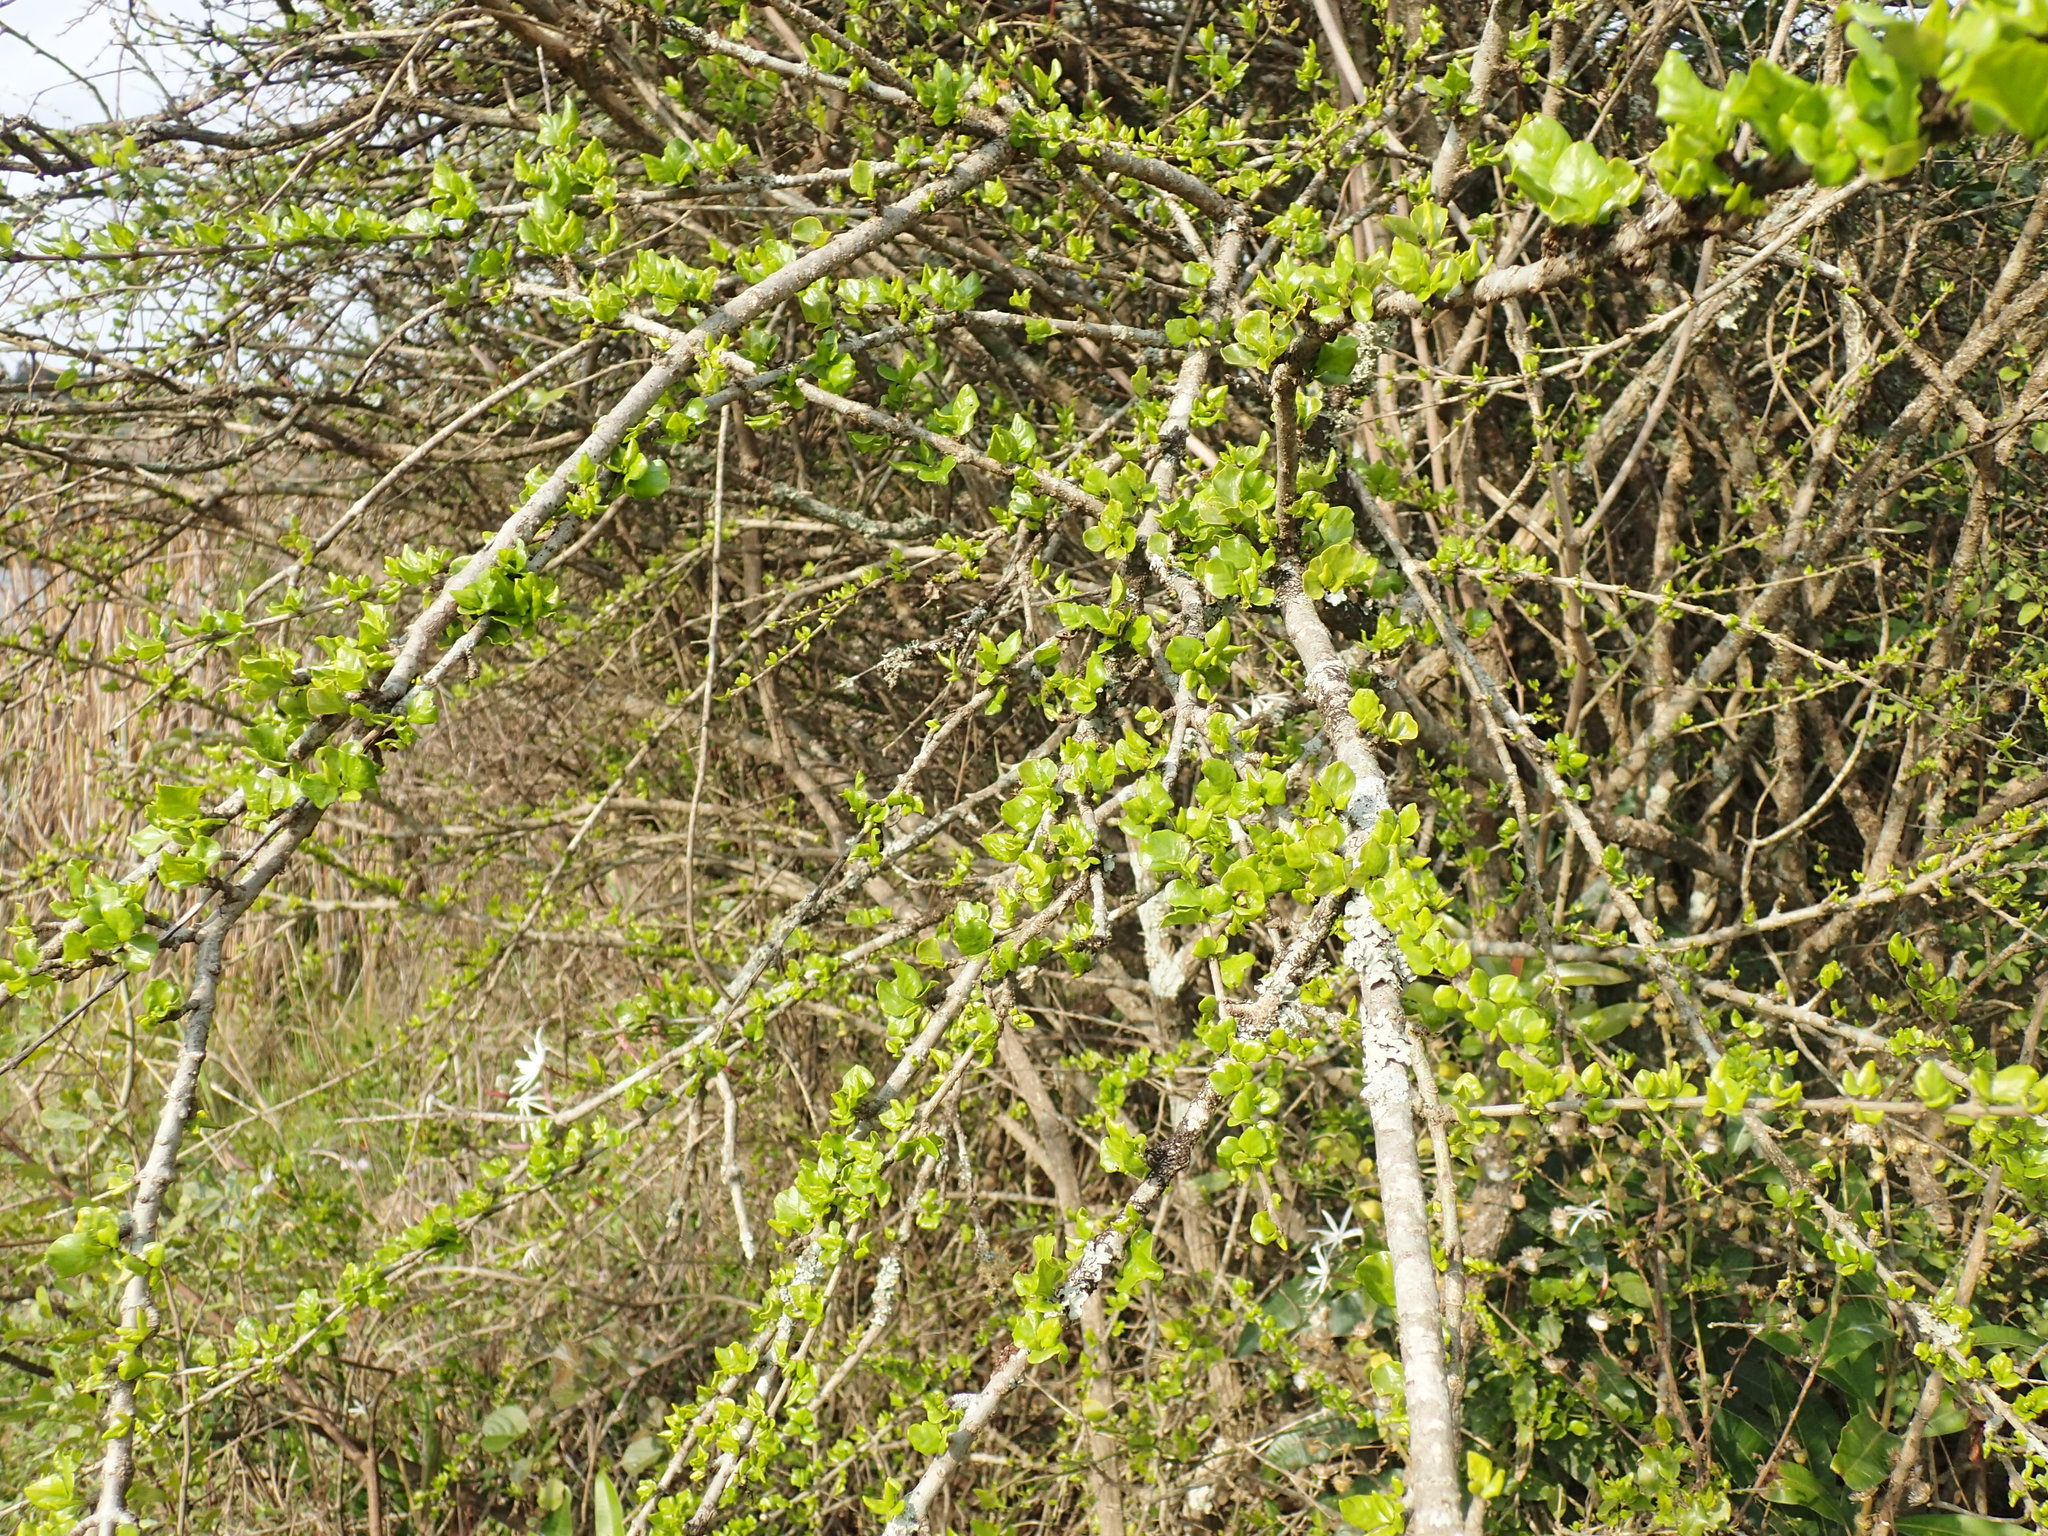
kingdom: Plantae
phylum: Tracheophyta
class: Magnoliopsida
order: Gentianales
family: Rubiaceae
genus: Coddia
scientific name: Coddia rudis
